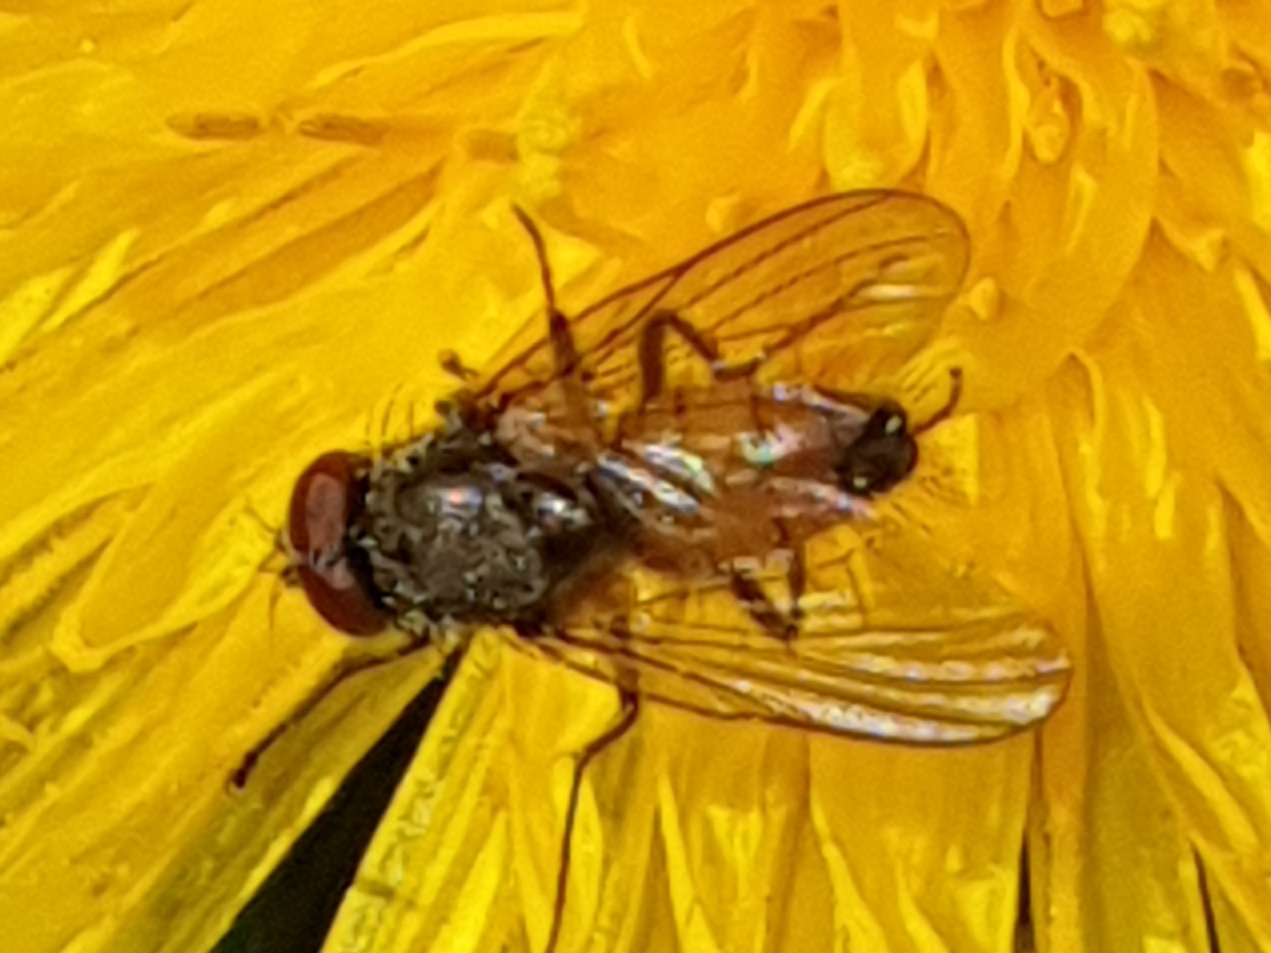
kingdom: Animalia
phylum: Arthropoda
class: Insecta
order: Diptera
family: Muscidae
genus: Thricops
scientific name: Thricops semicinereus
